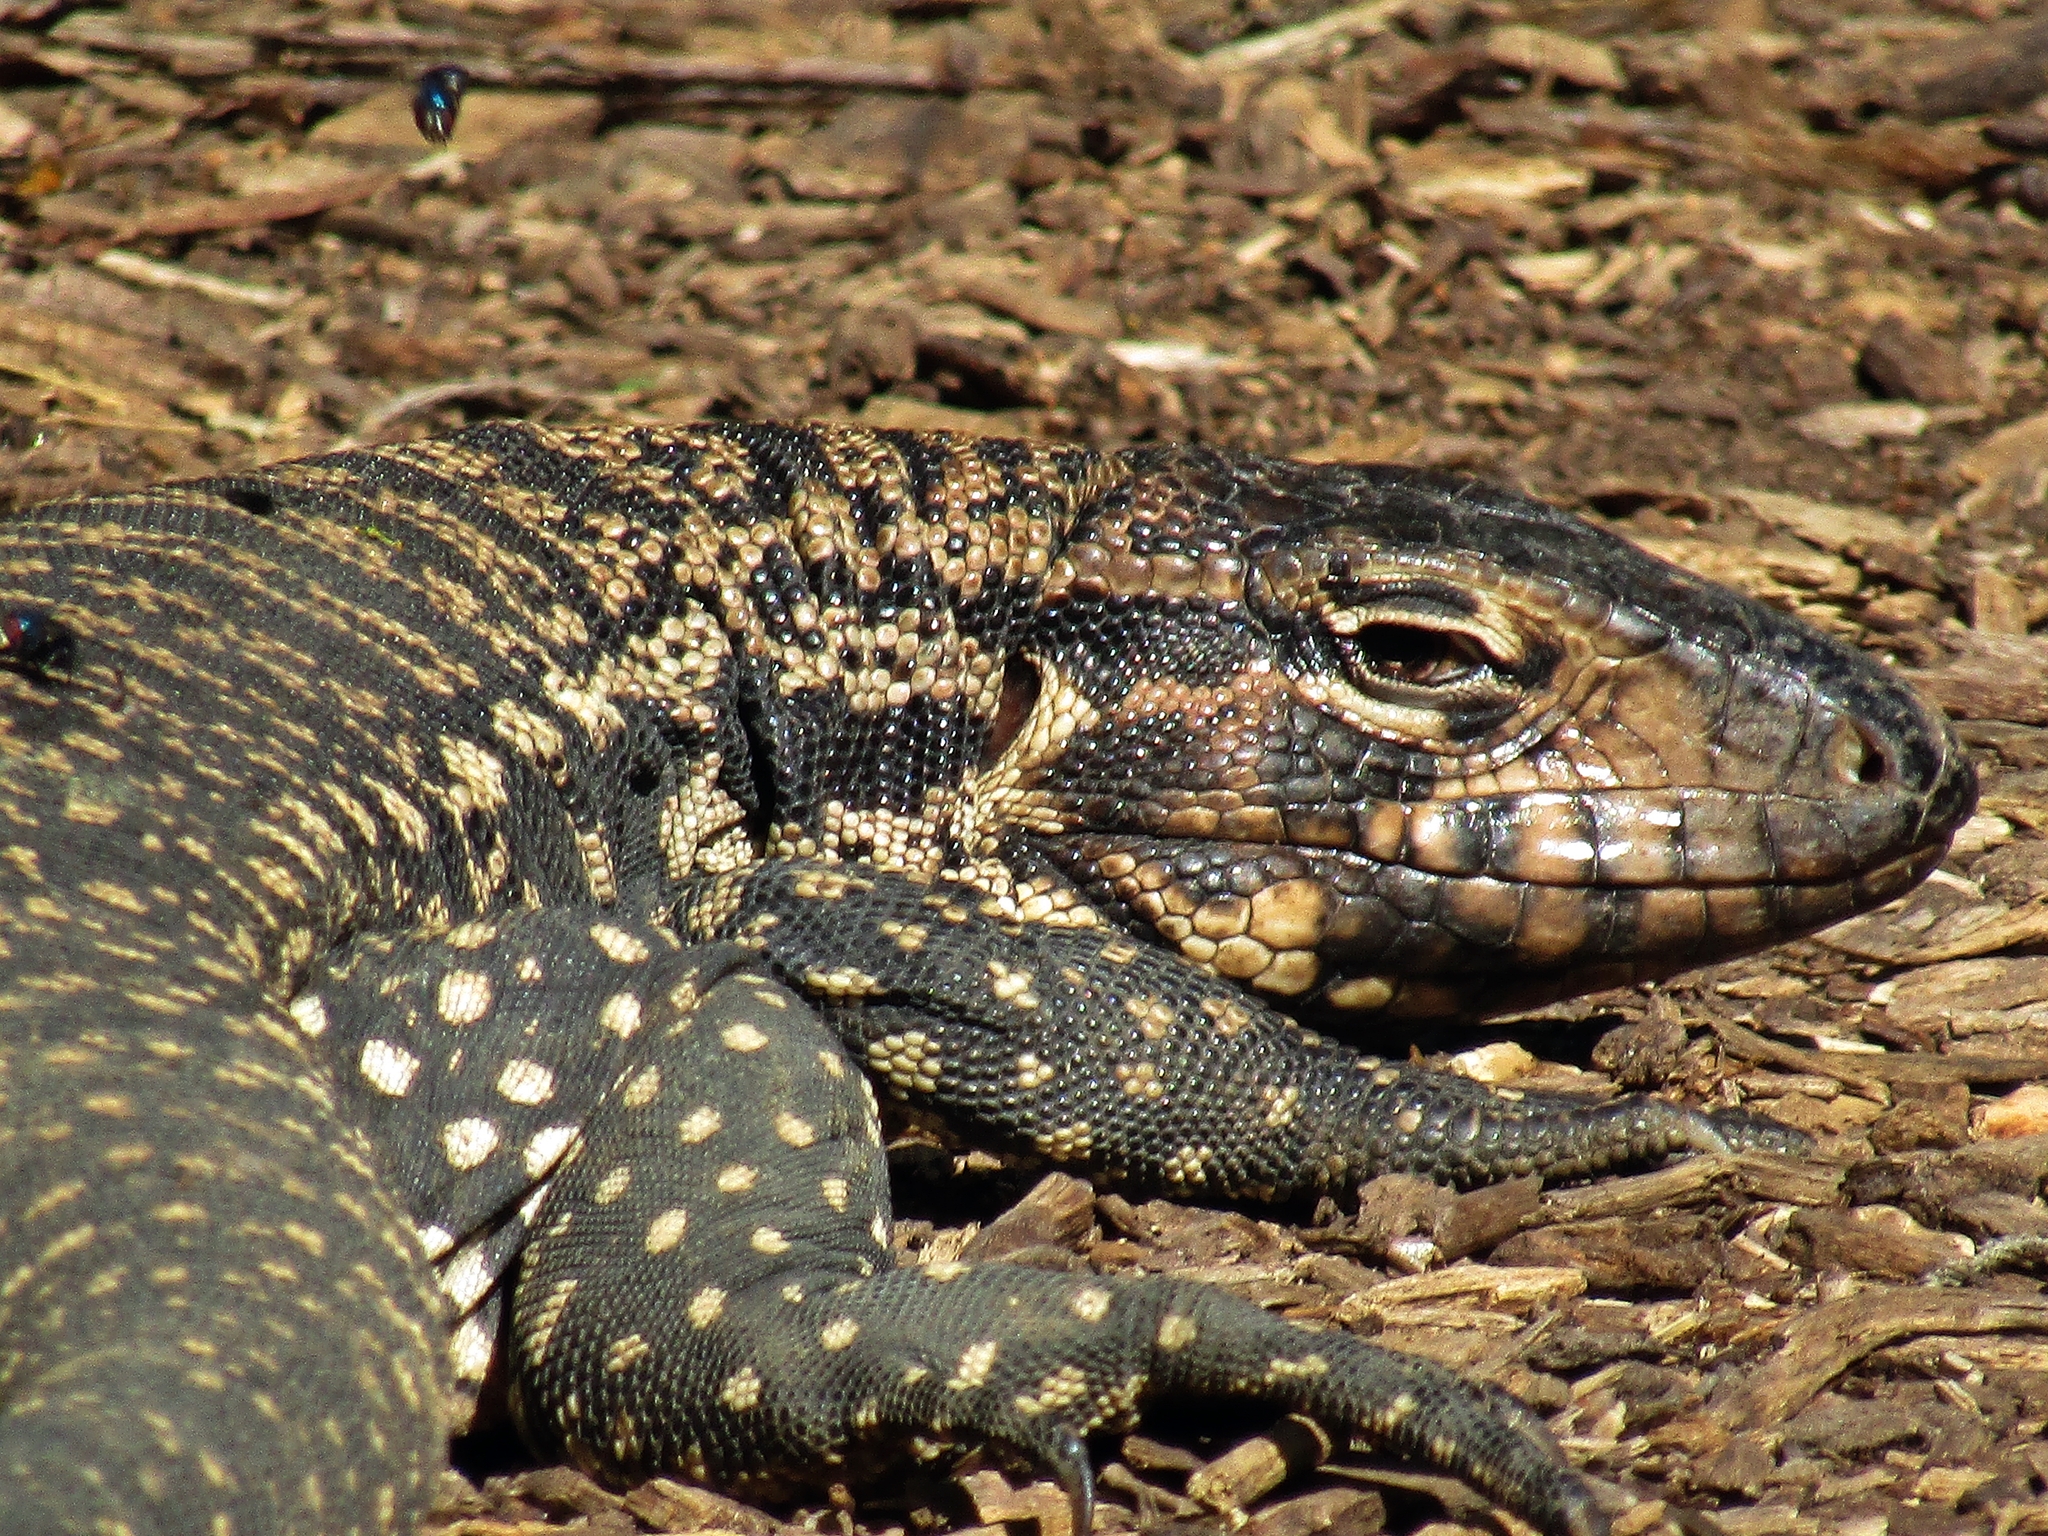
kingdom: Animalia
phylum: Chordata
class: Squamata
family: Teiidae
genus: Salvator
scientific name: Salvator merianae
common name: Argentine black and white tegu
